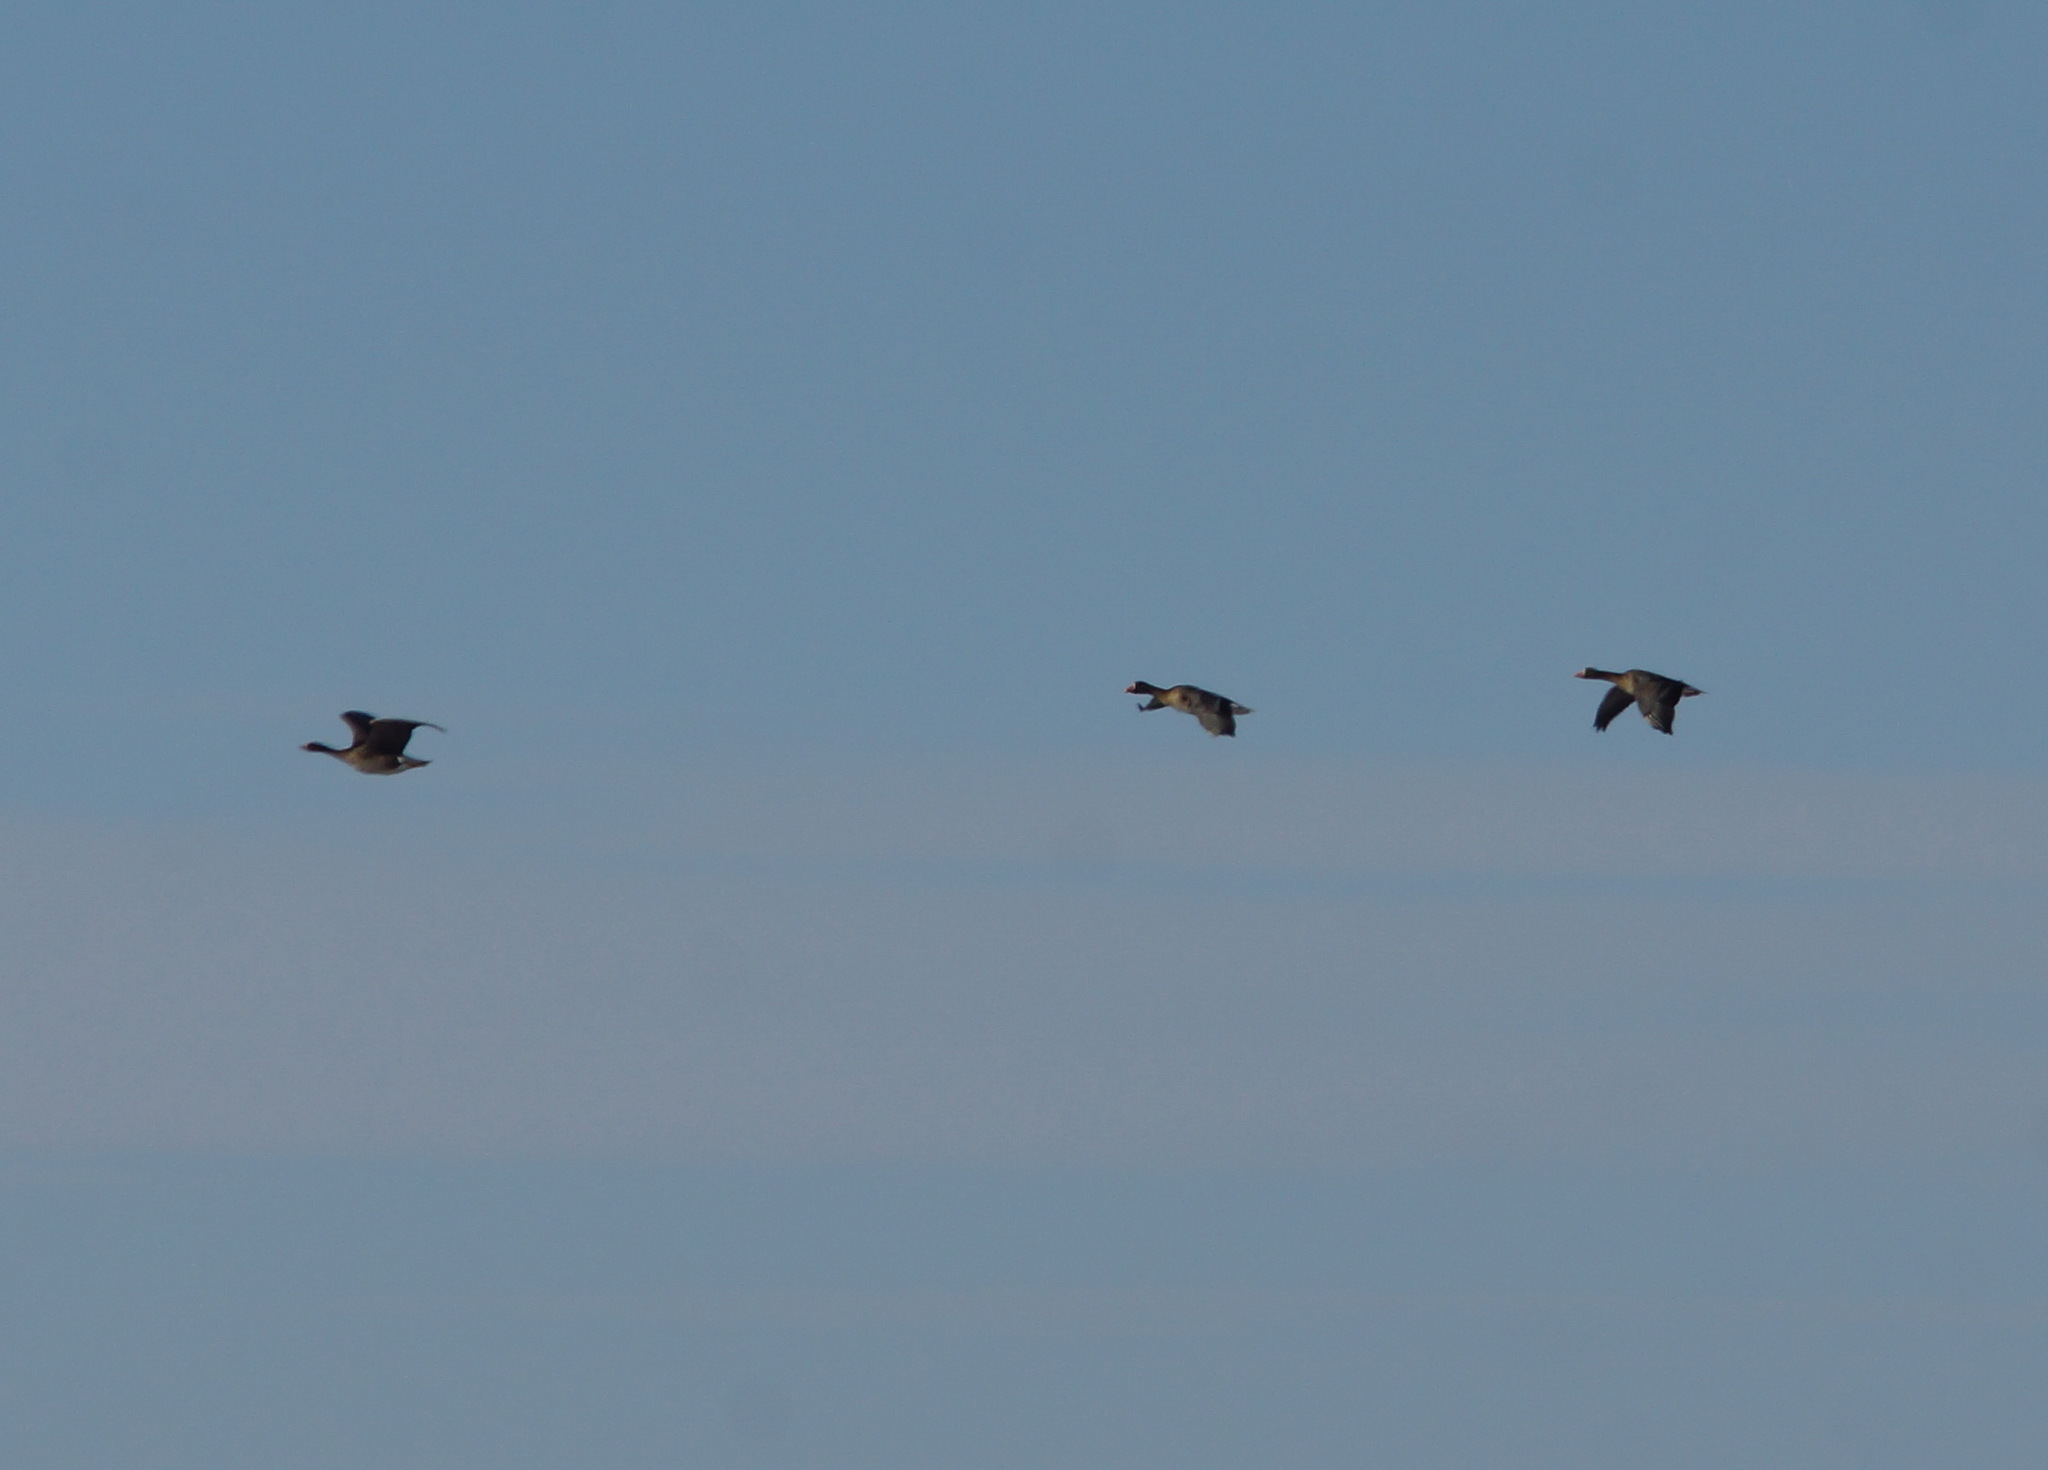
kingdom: Animalia
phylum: Chordata
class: Aves
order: Anseriformes
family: Anatidae
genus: Anser
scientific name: Anser albifrons
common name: Greater white-fronted goose
